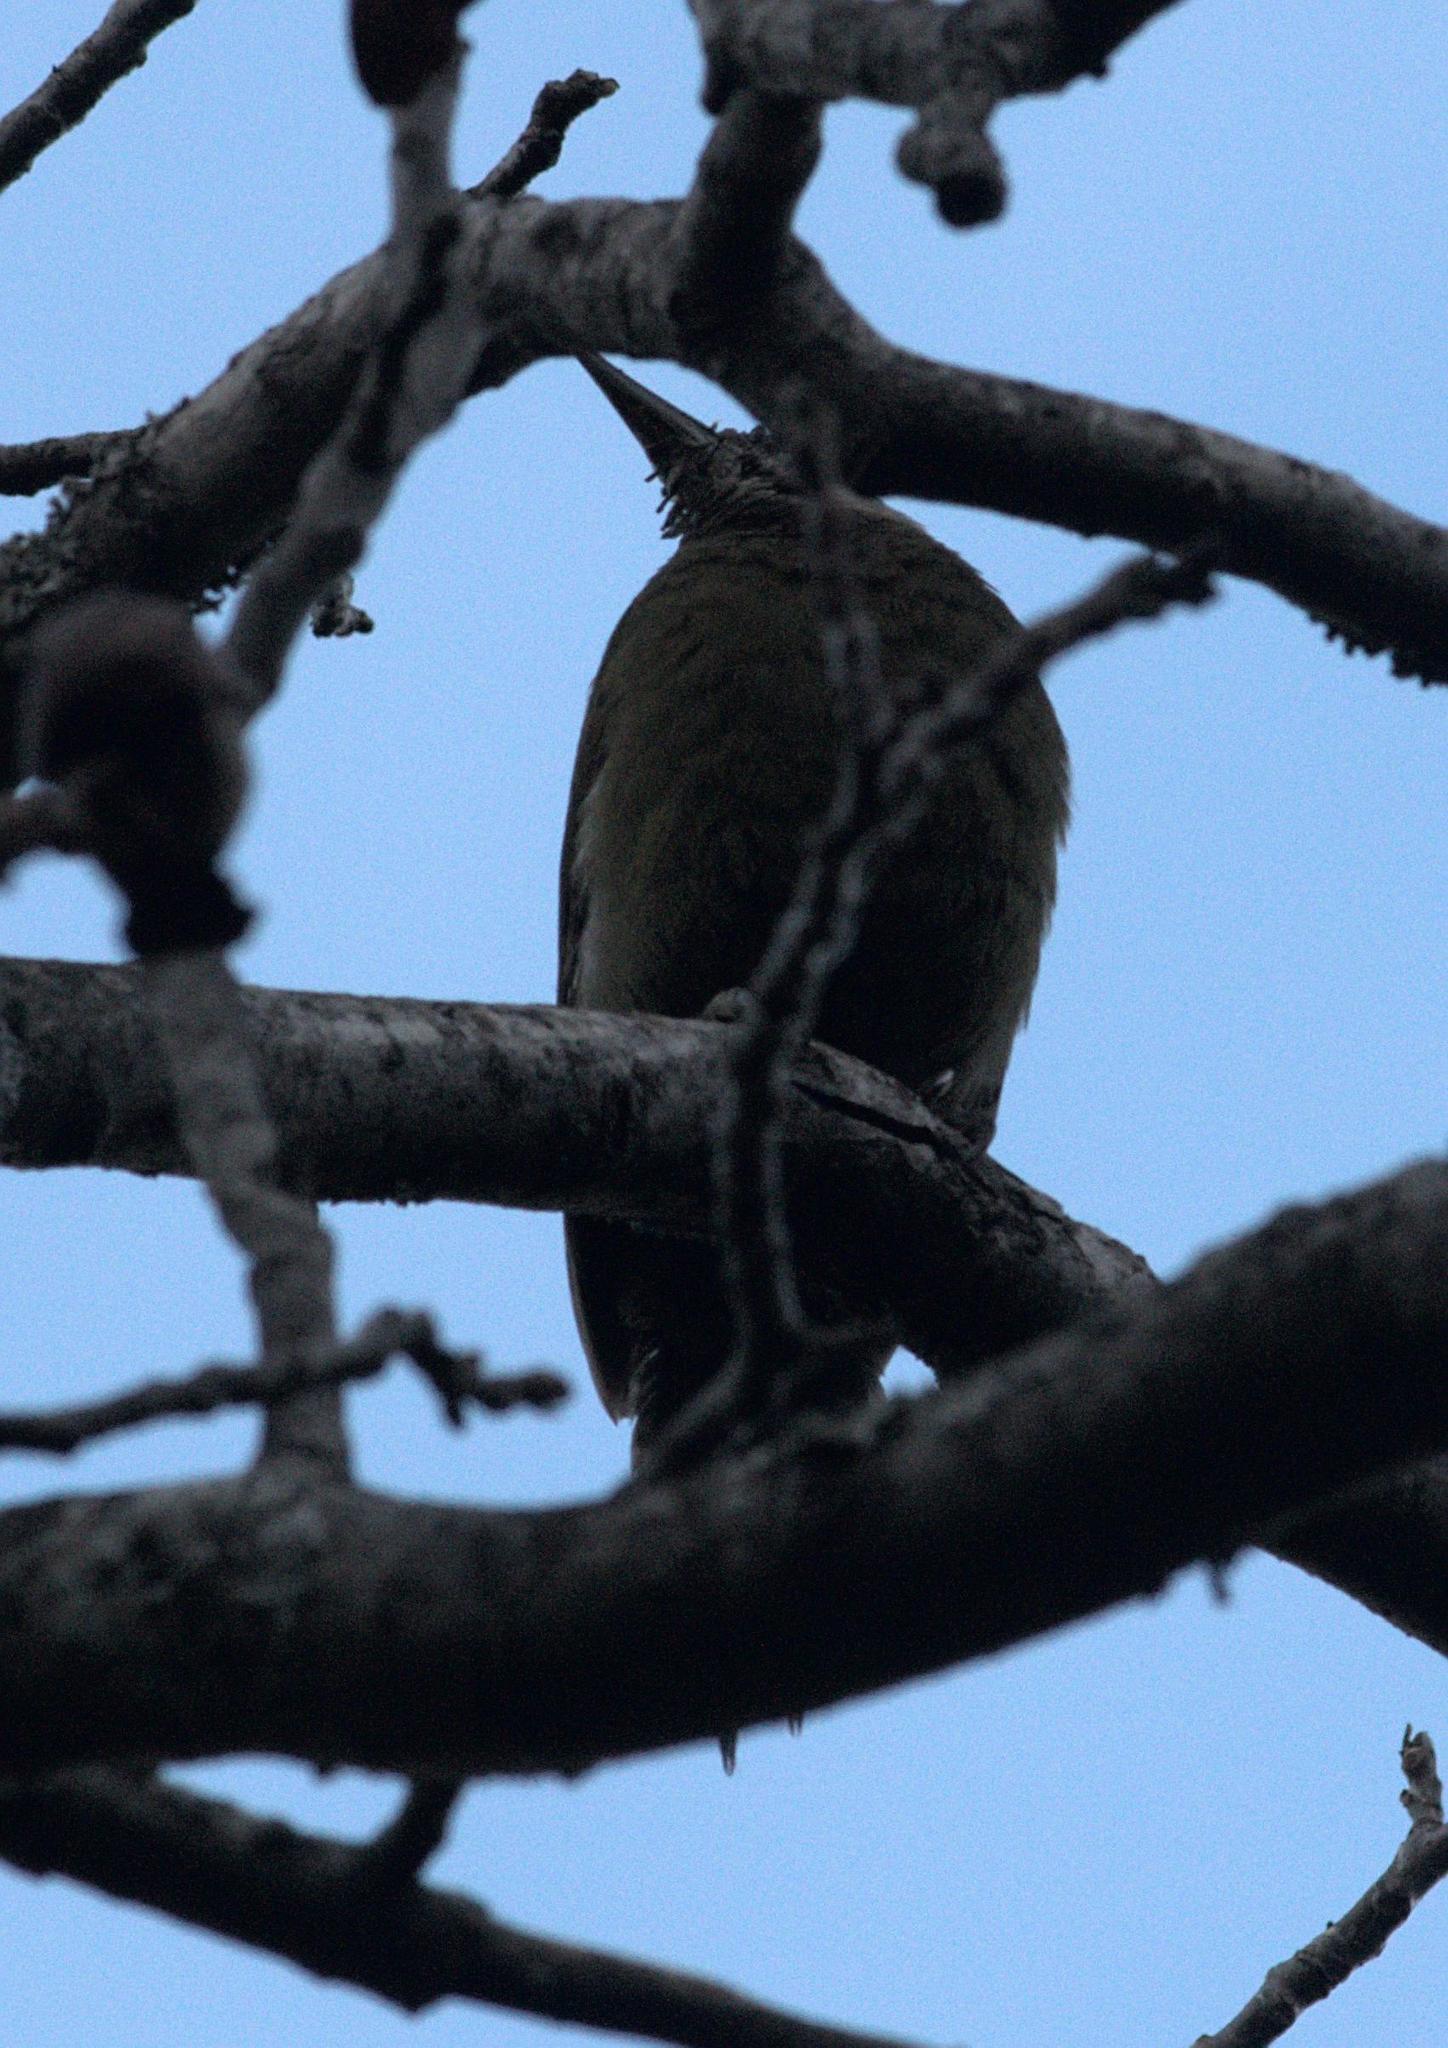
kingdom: Animalia
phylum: Chordata
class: Aves
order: Piciformes
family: Picidae
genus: Picus
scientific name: Picus canus
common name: Grey-headed woodpecker
